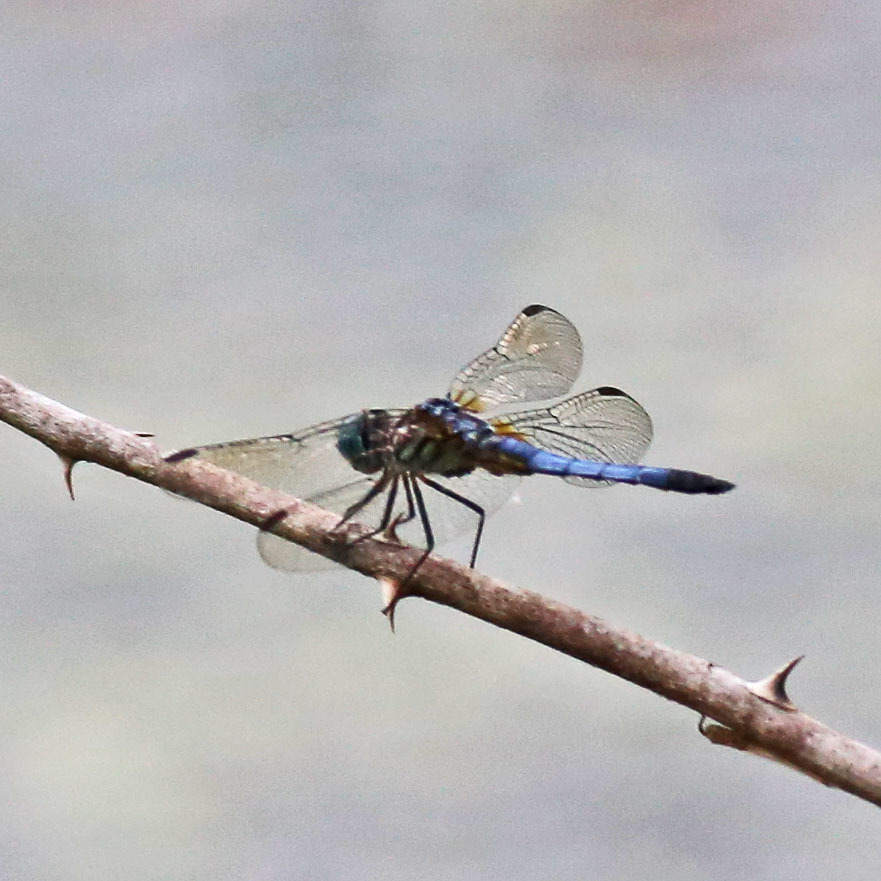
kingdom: Animalia
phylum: Arthropoda
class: Insecta
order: Odonata
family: Libellulidae
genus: Pachydiplax
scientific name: Pachydiplax longipennis
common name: Blue dasher
